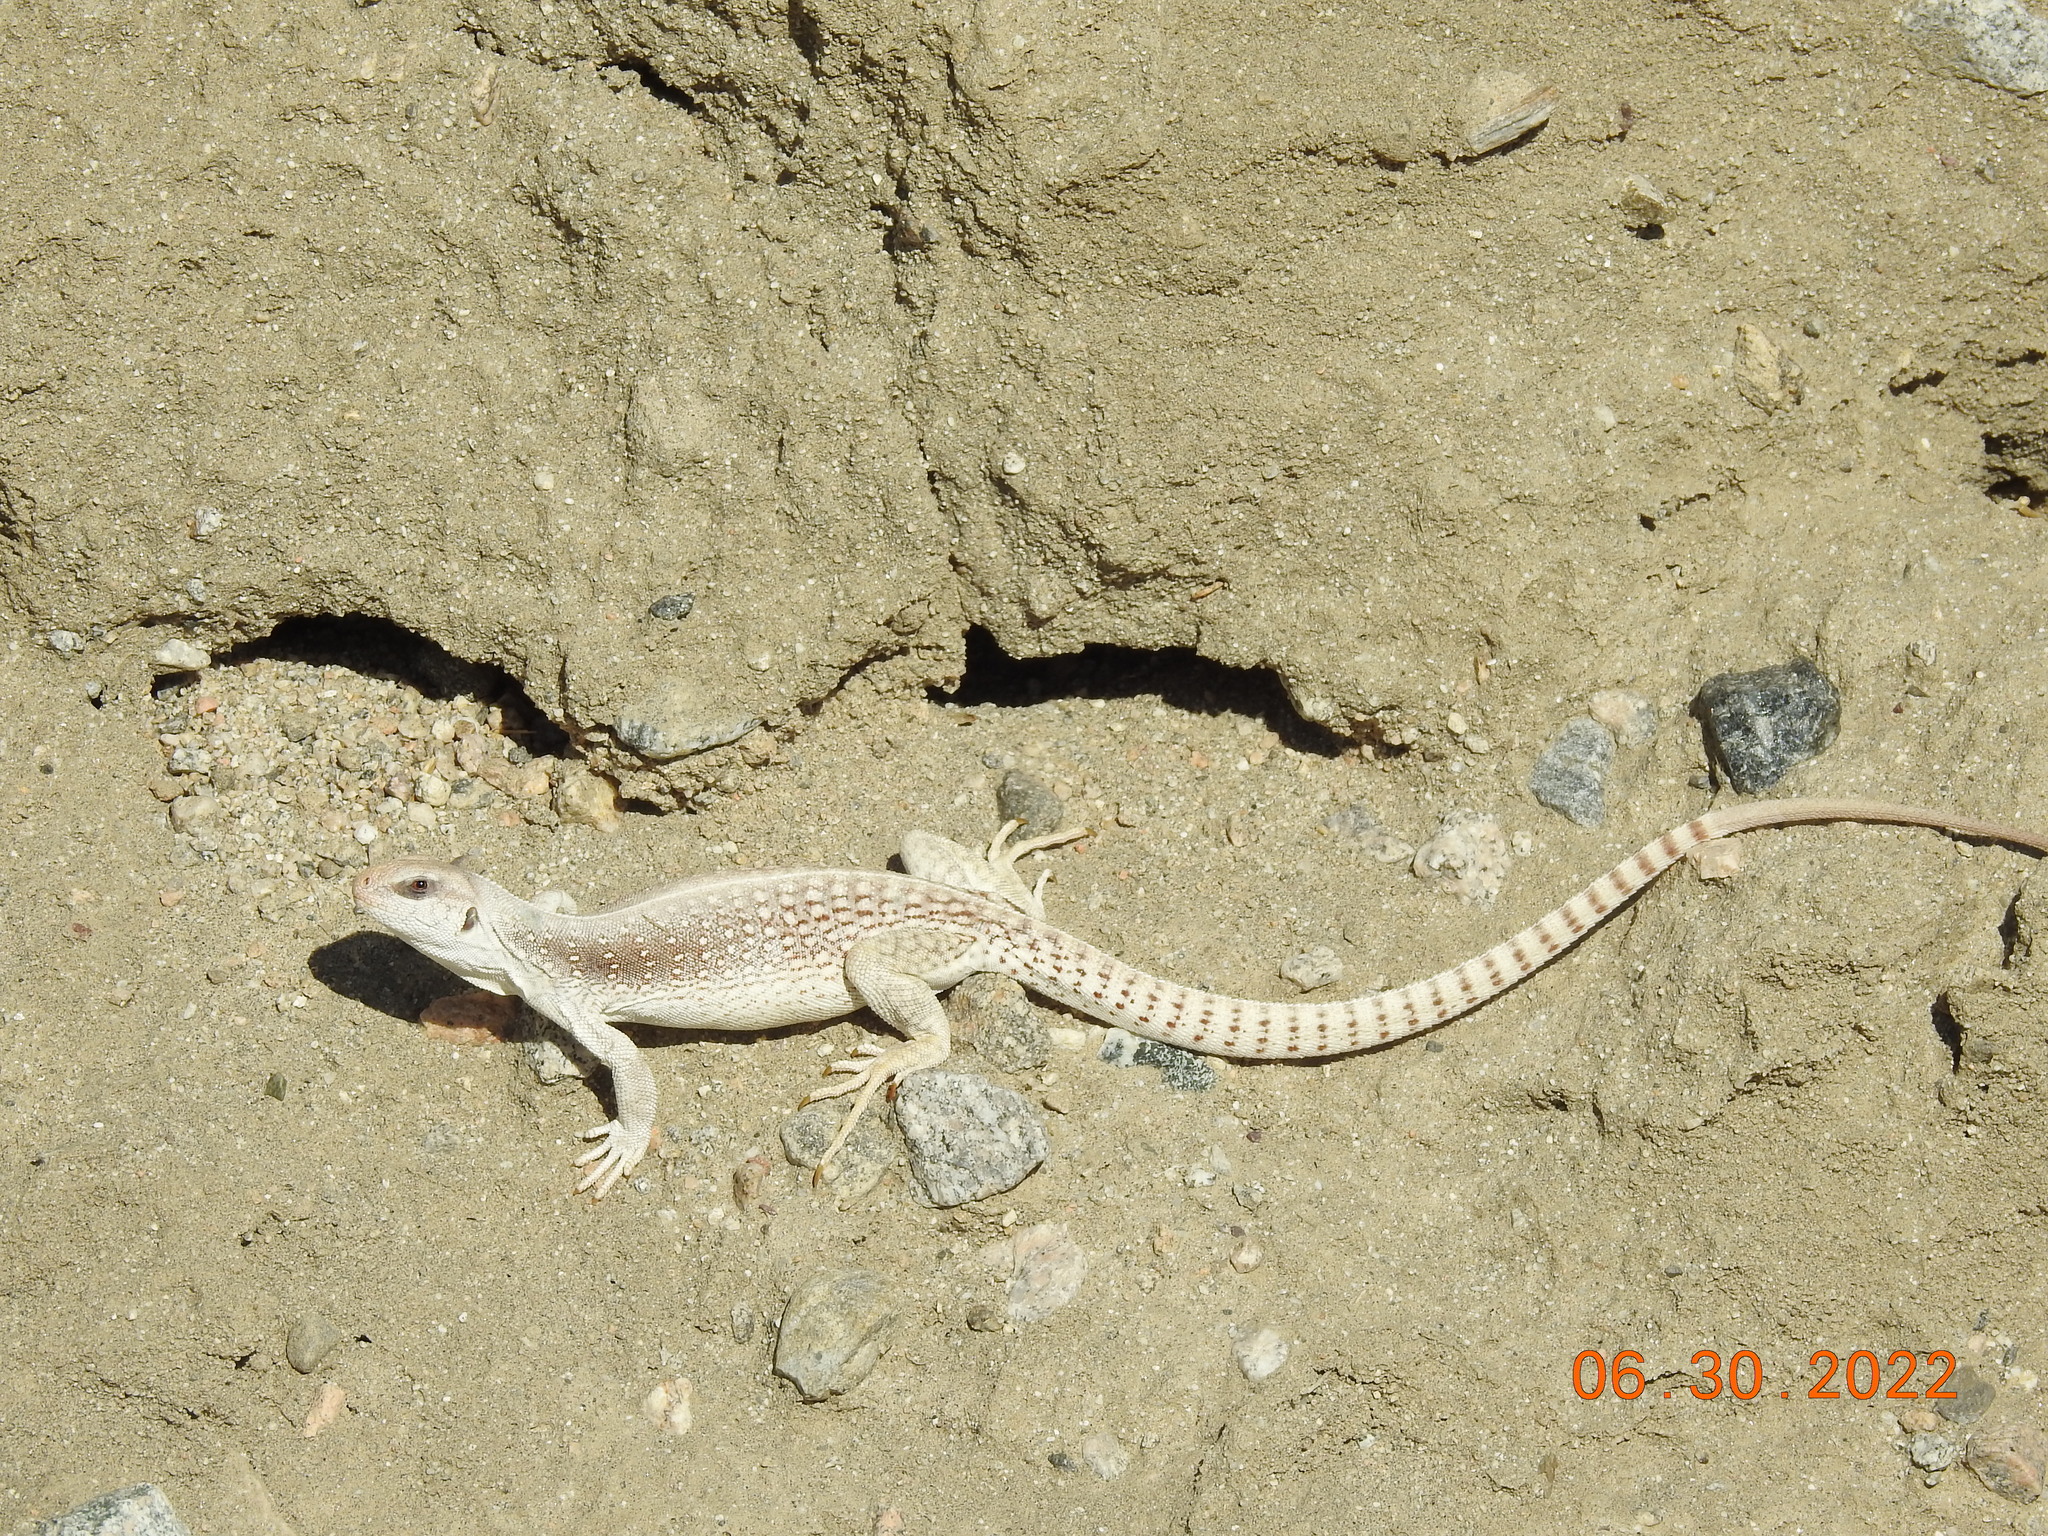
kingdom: Animalia
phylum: Chordata
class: Squamata
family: Iguanidae
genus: Dipsosaurus
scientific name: Dipsosaurus dorsalis
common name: Desert iguana
